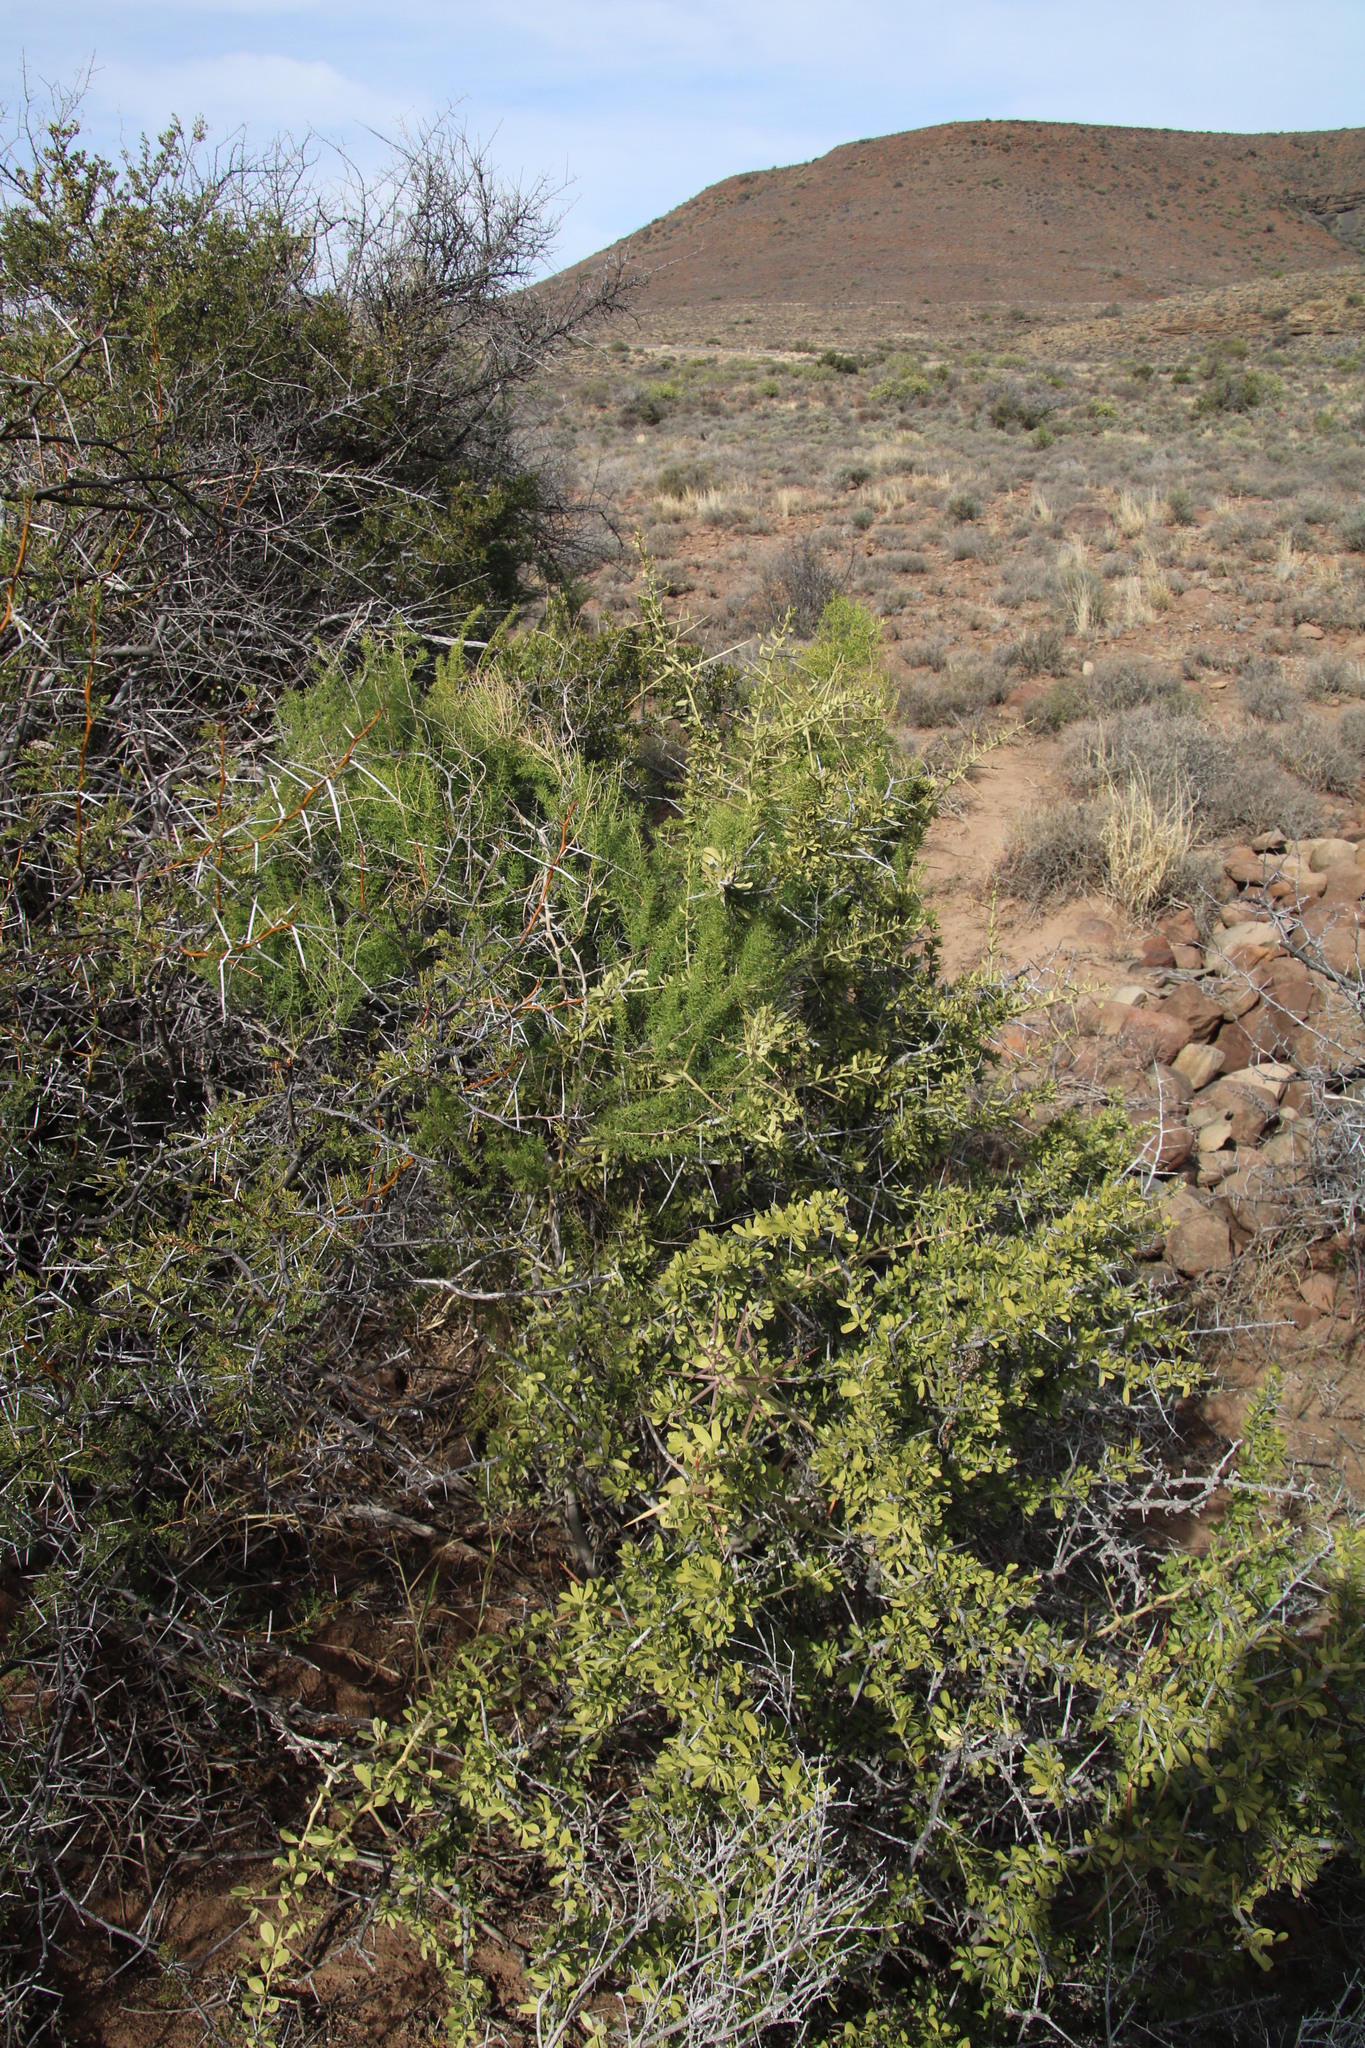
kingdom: Plantae
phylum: Tracheophyta
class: Liliopsida
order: Asparagales
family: Asparagaceae
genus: Asparagus
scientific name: Asparagus aethiopicus
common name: Sprenger's asparagus fern
